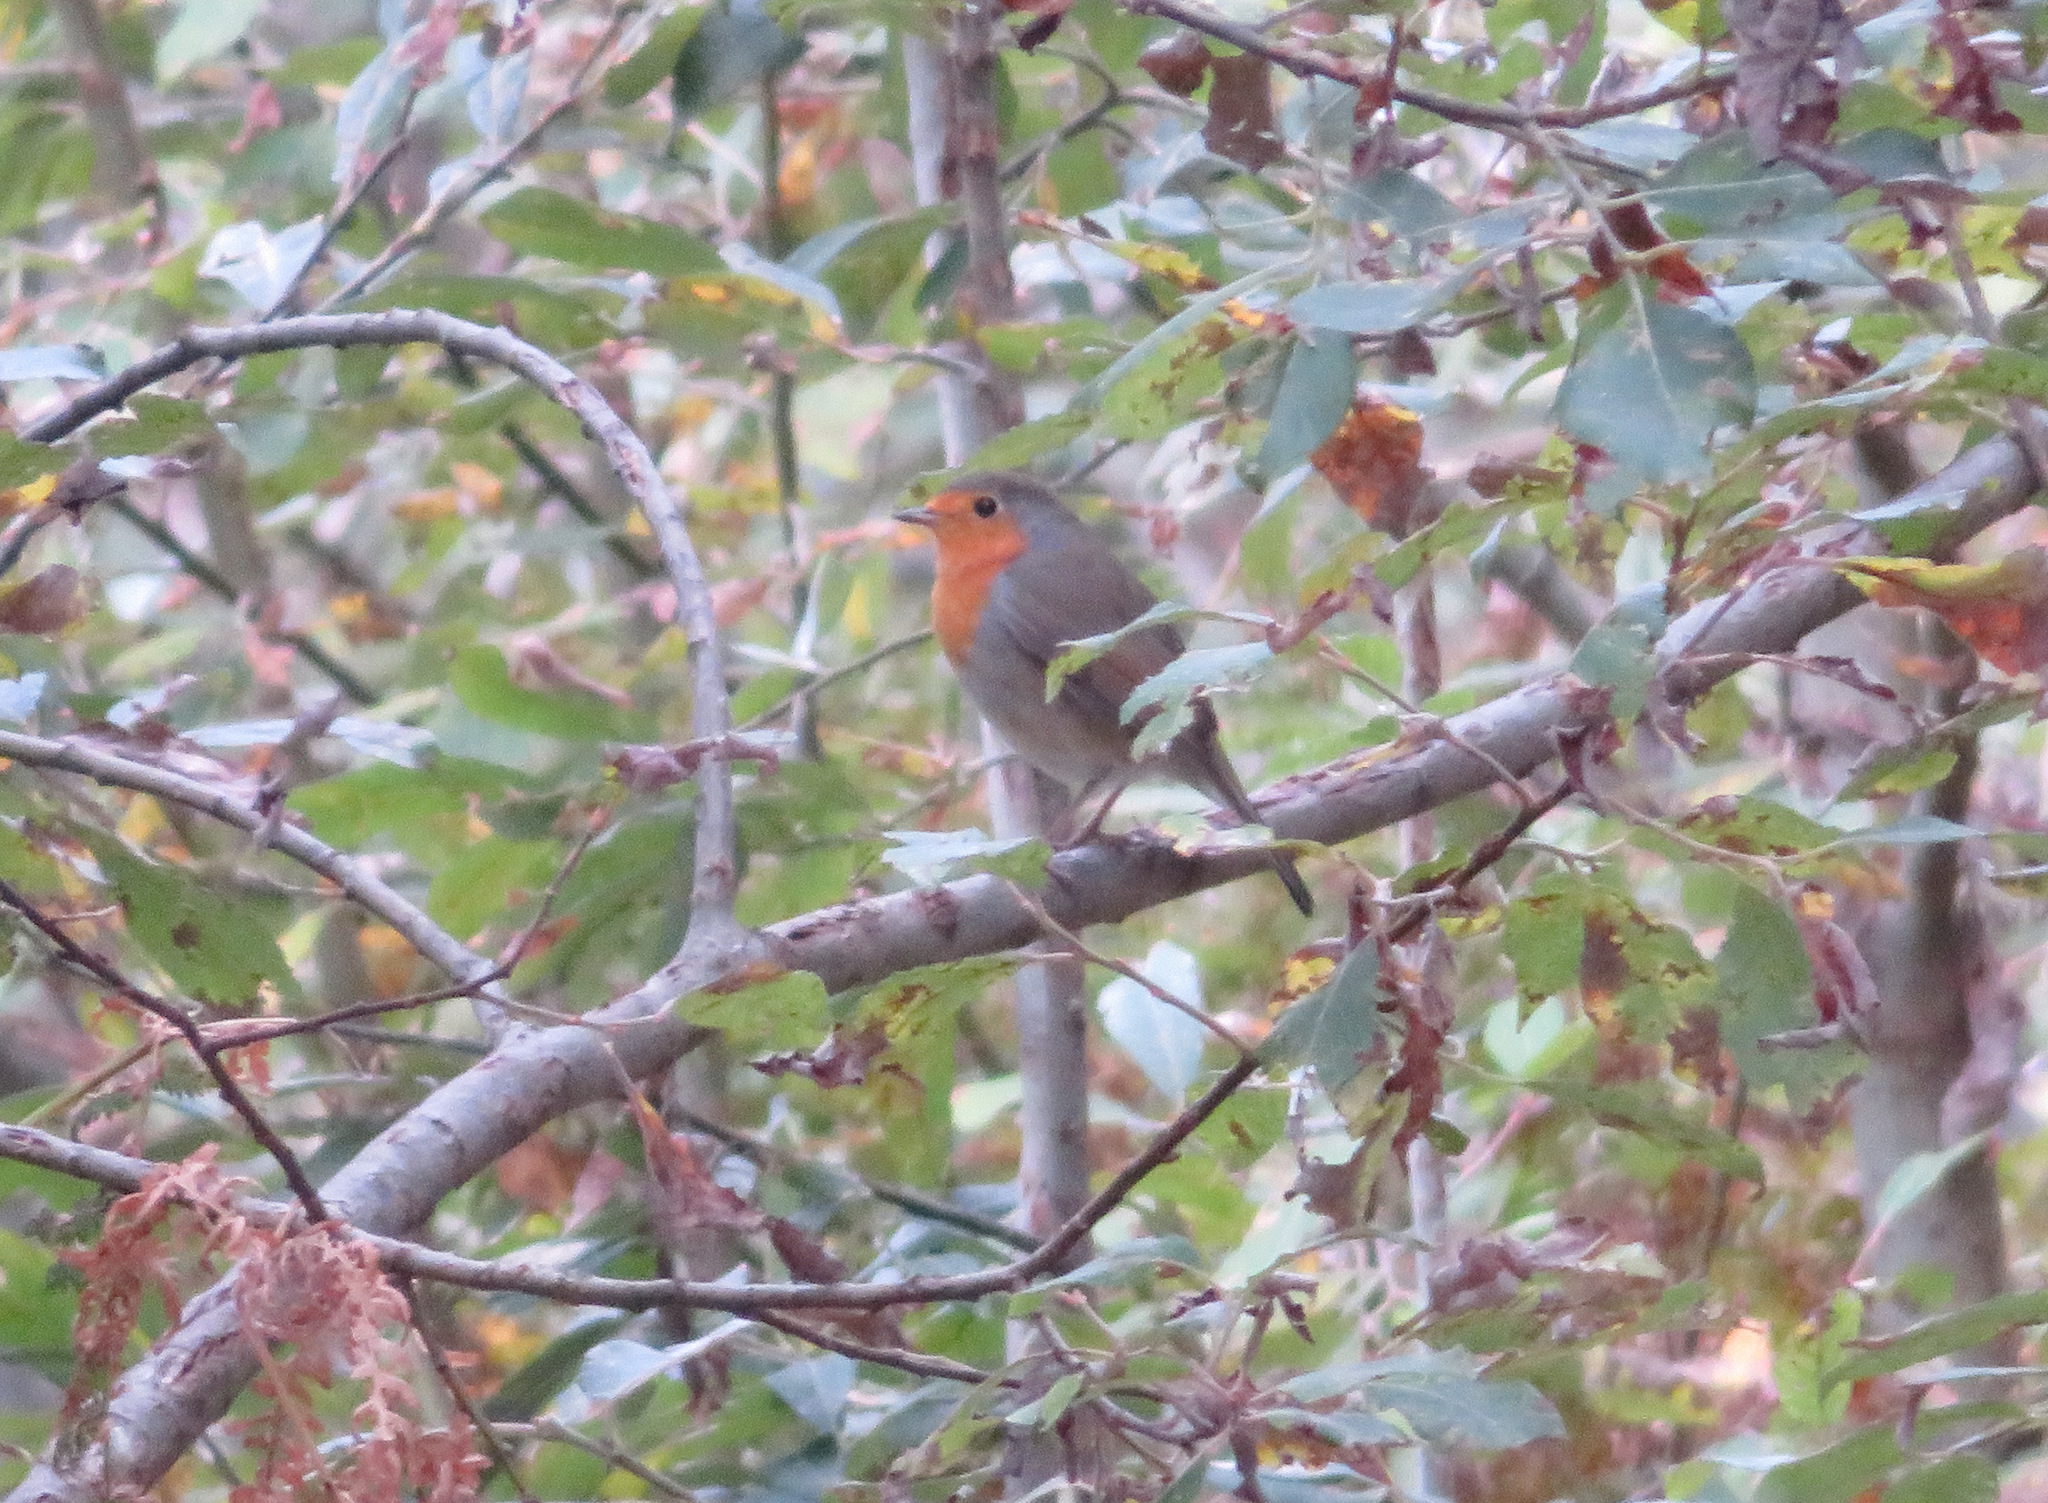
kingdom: Animalia
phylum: Chordata
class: Aves
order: Passeriformes
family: Muscicapidae
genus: Erithacus
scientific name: Erithacus rubecula
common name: European robin
